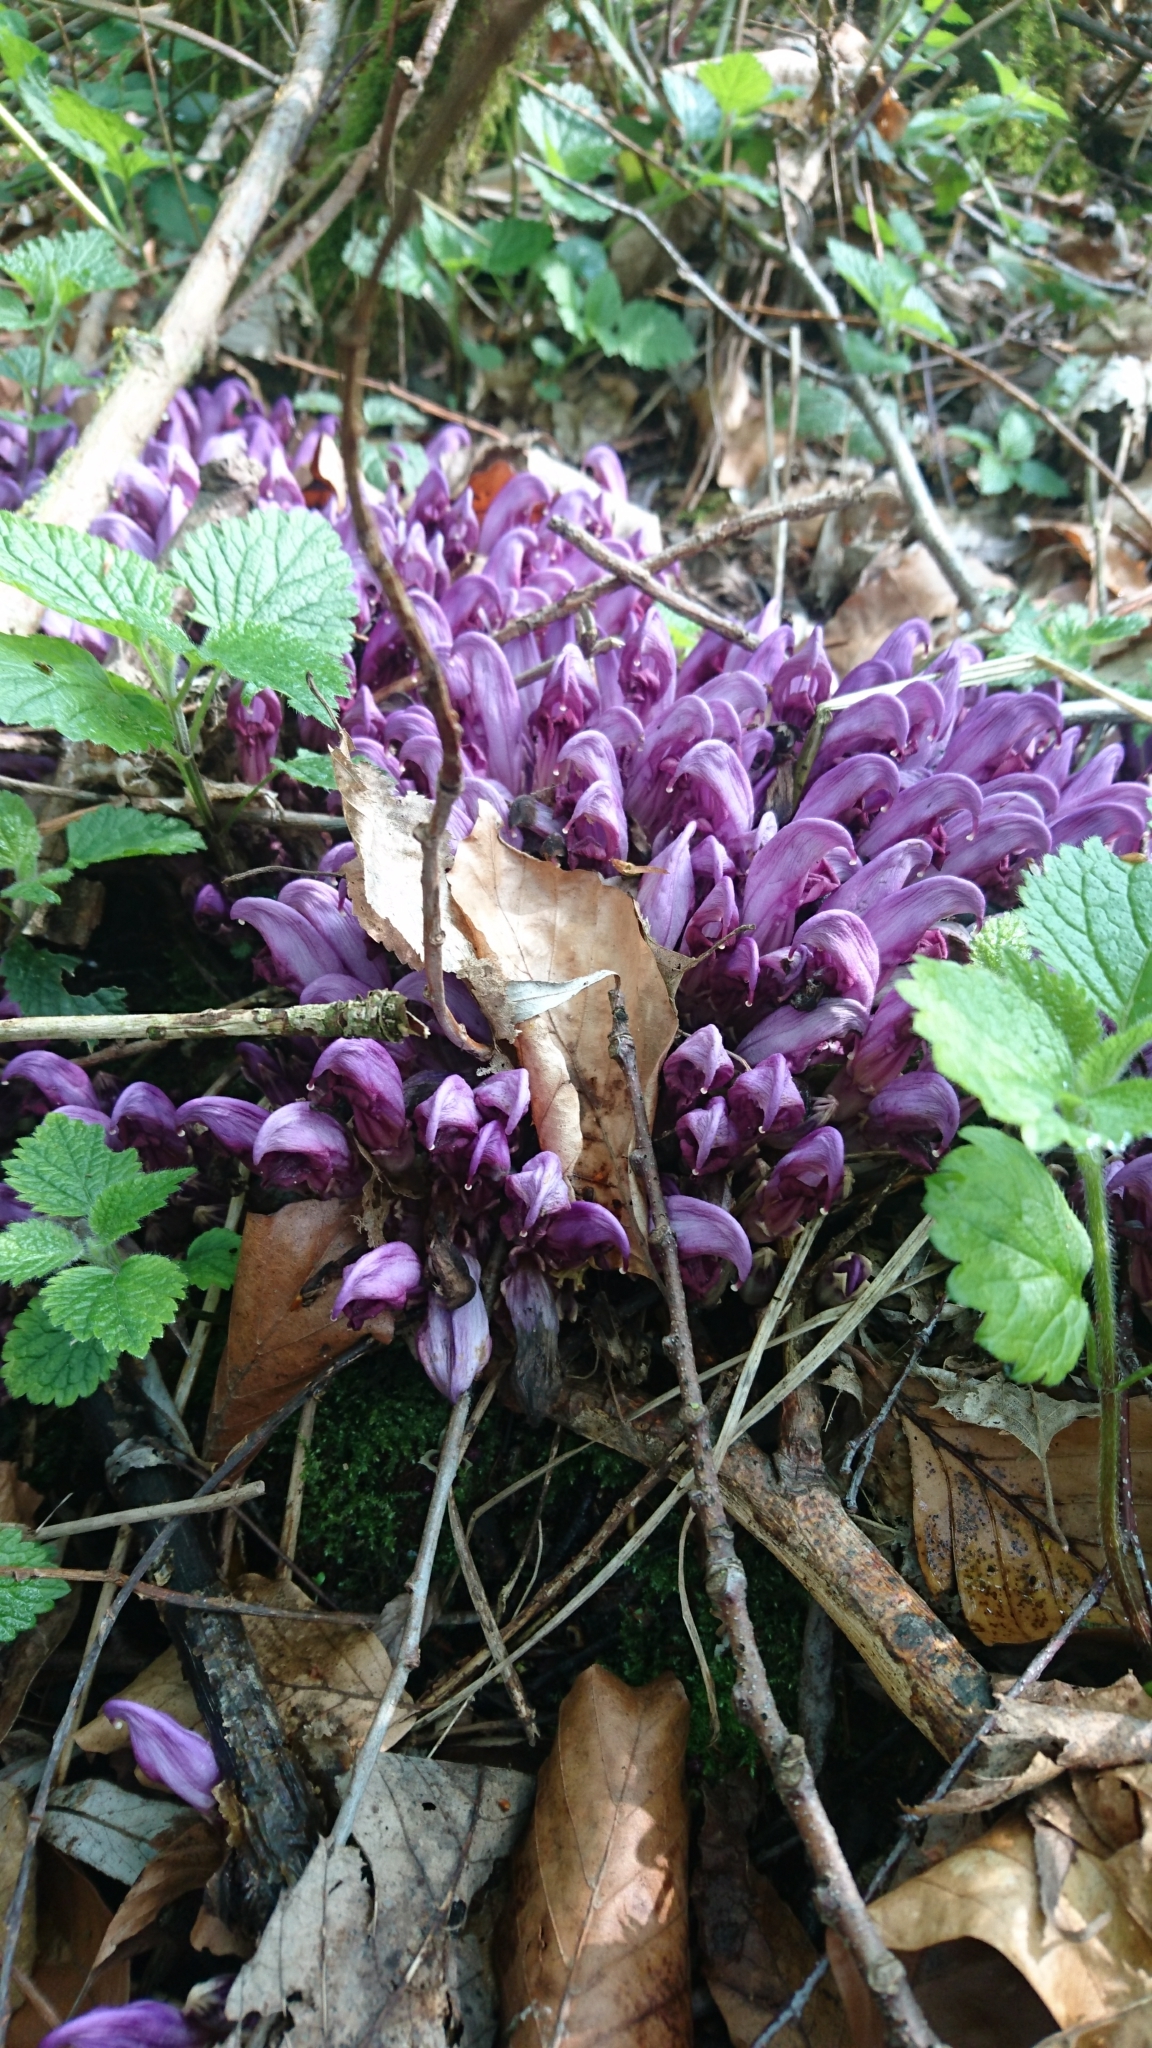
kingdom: Plantae
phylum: Tracheophyta
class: Magnoliopsida
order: Lamiales
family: Orobanchaceae
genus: Lathraea
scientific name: Lathraea clandestina
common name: Purple toothwort
